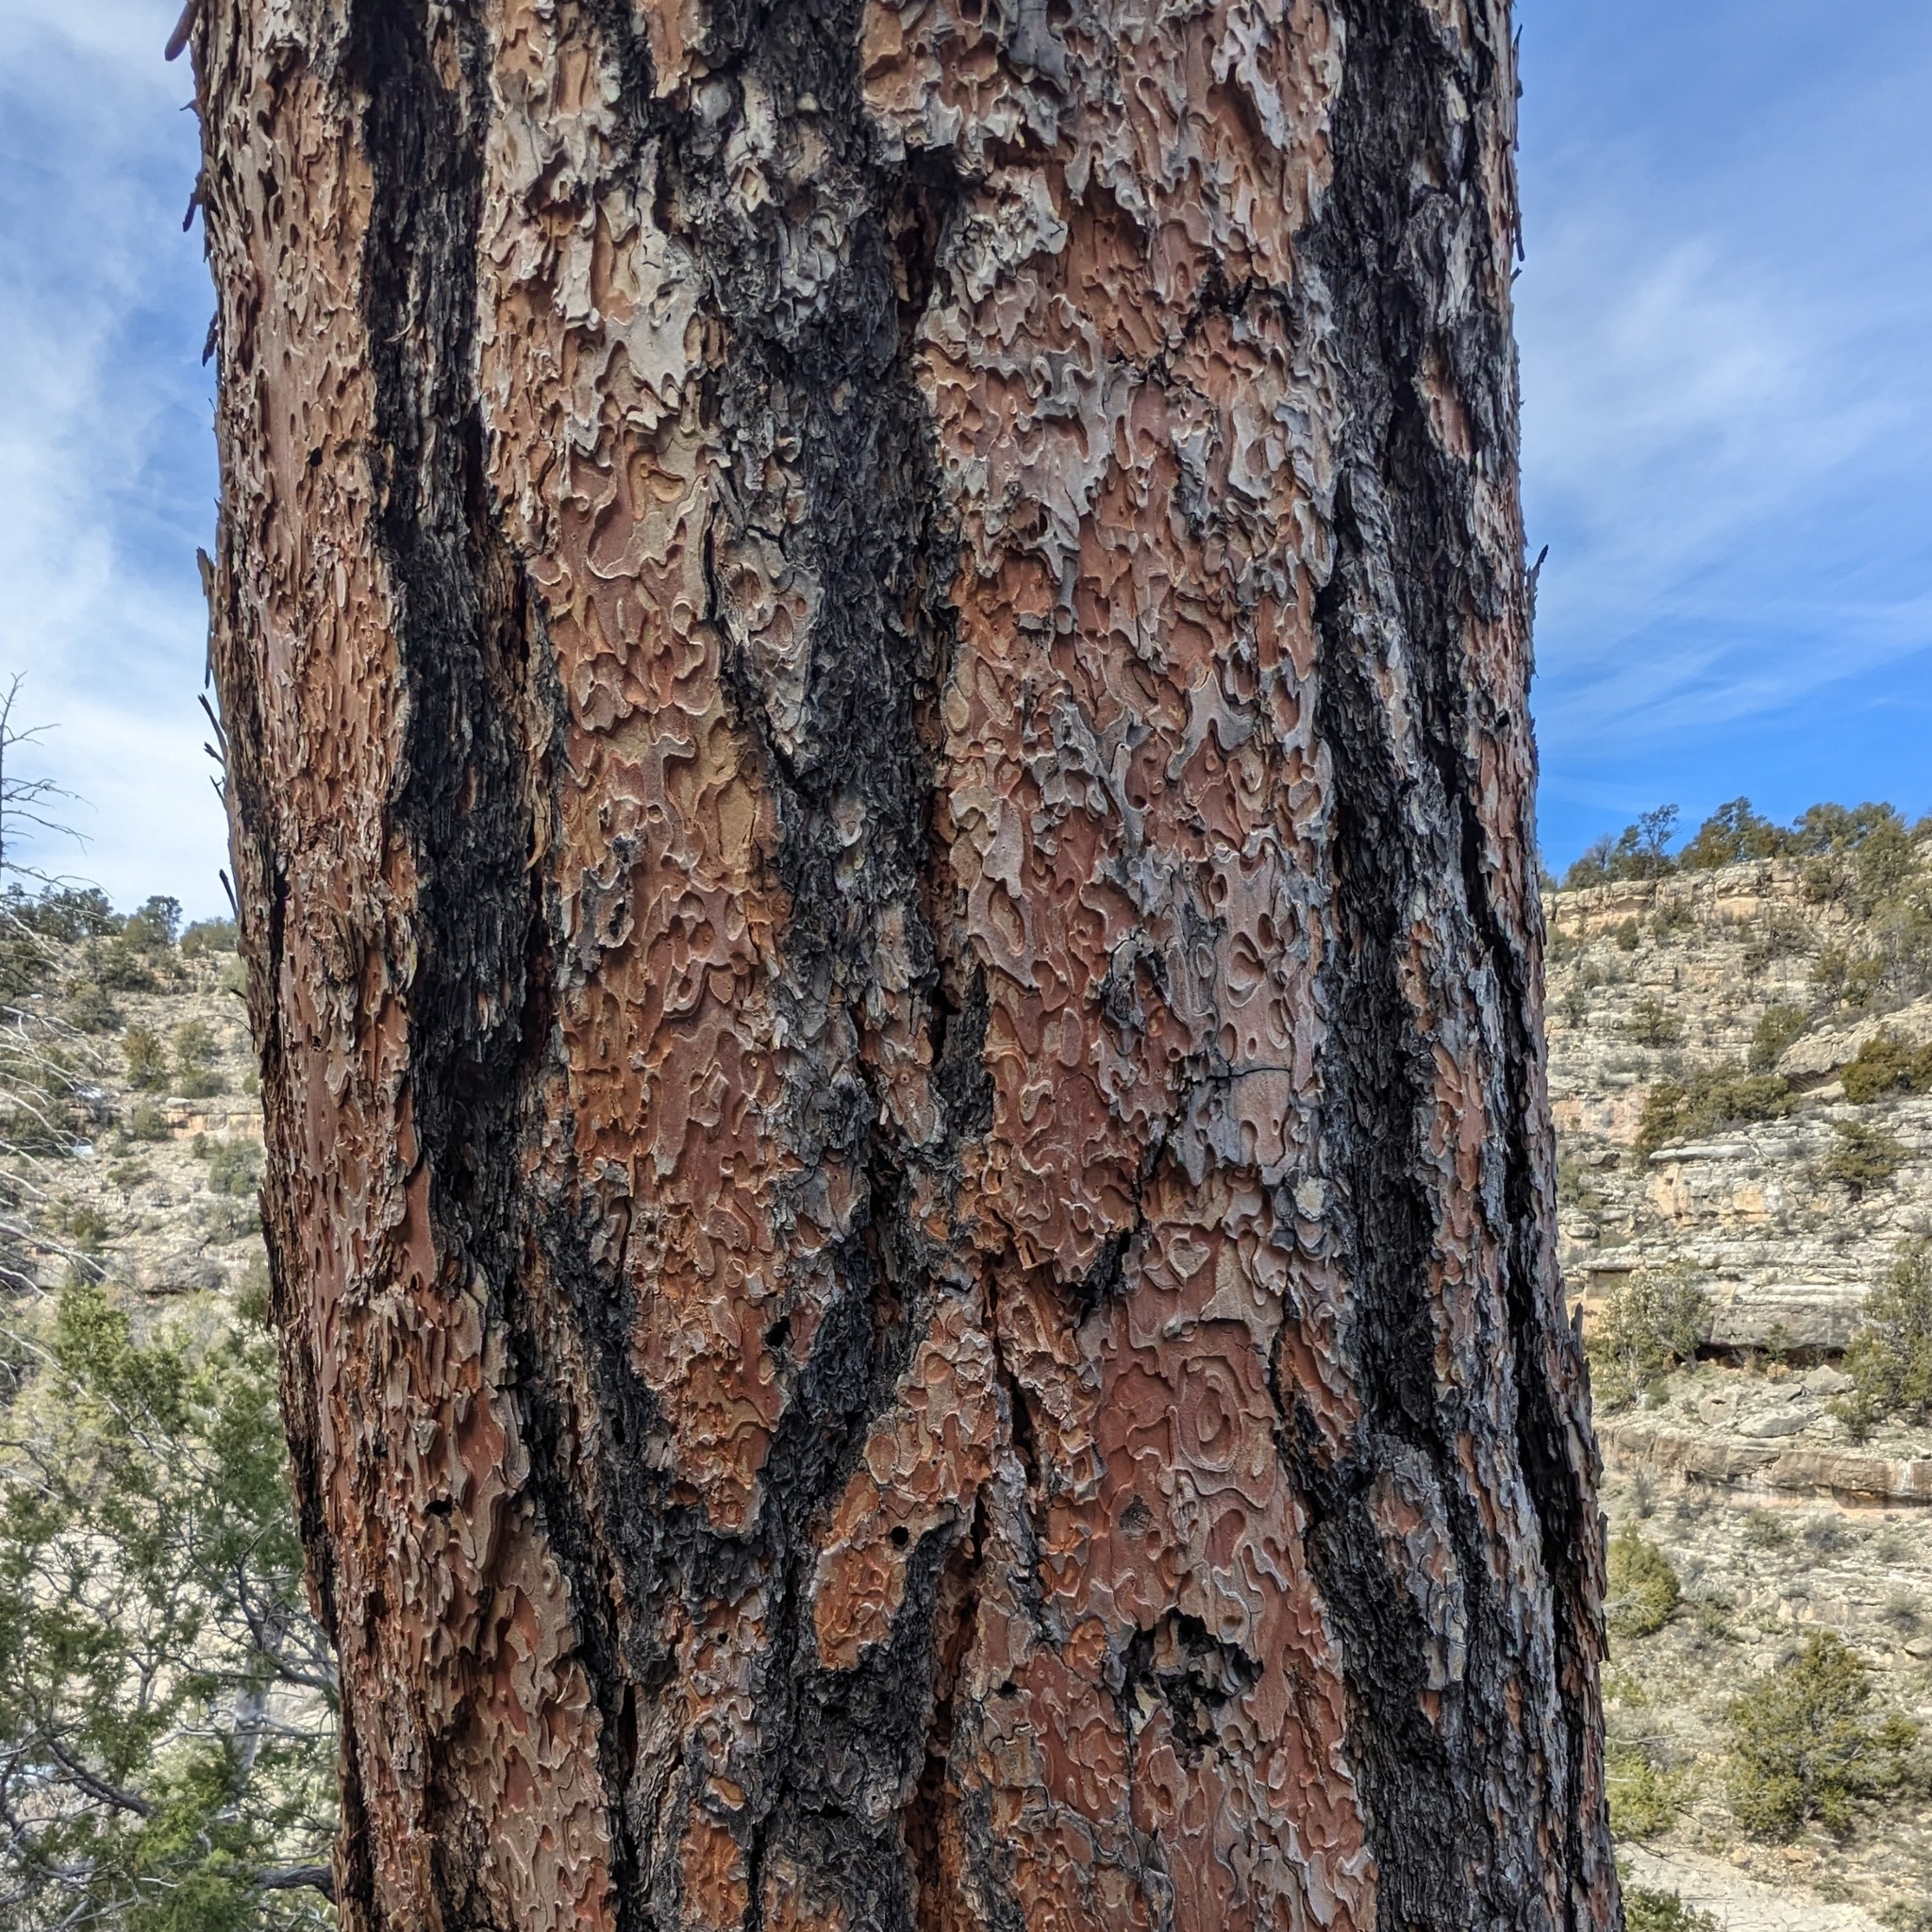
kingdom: Plantae
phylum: Tracheophyta
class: Pinopsida
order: Pinales
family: Pinaceae
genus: Pinus
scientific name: Pinus ponderosa
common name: Western yellow-pine
